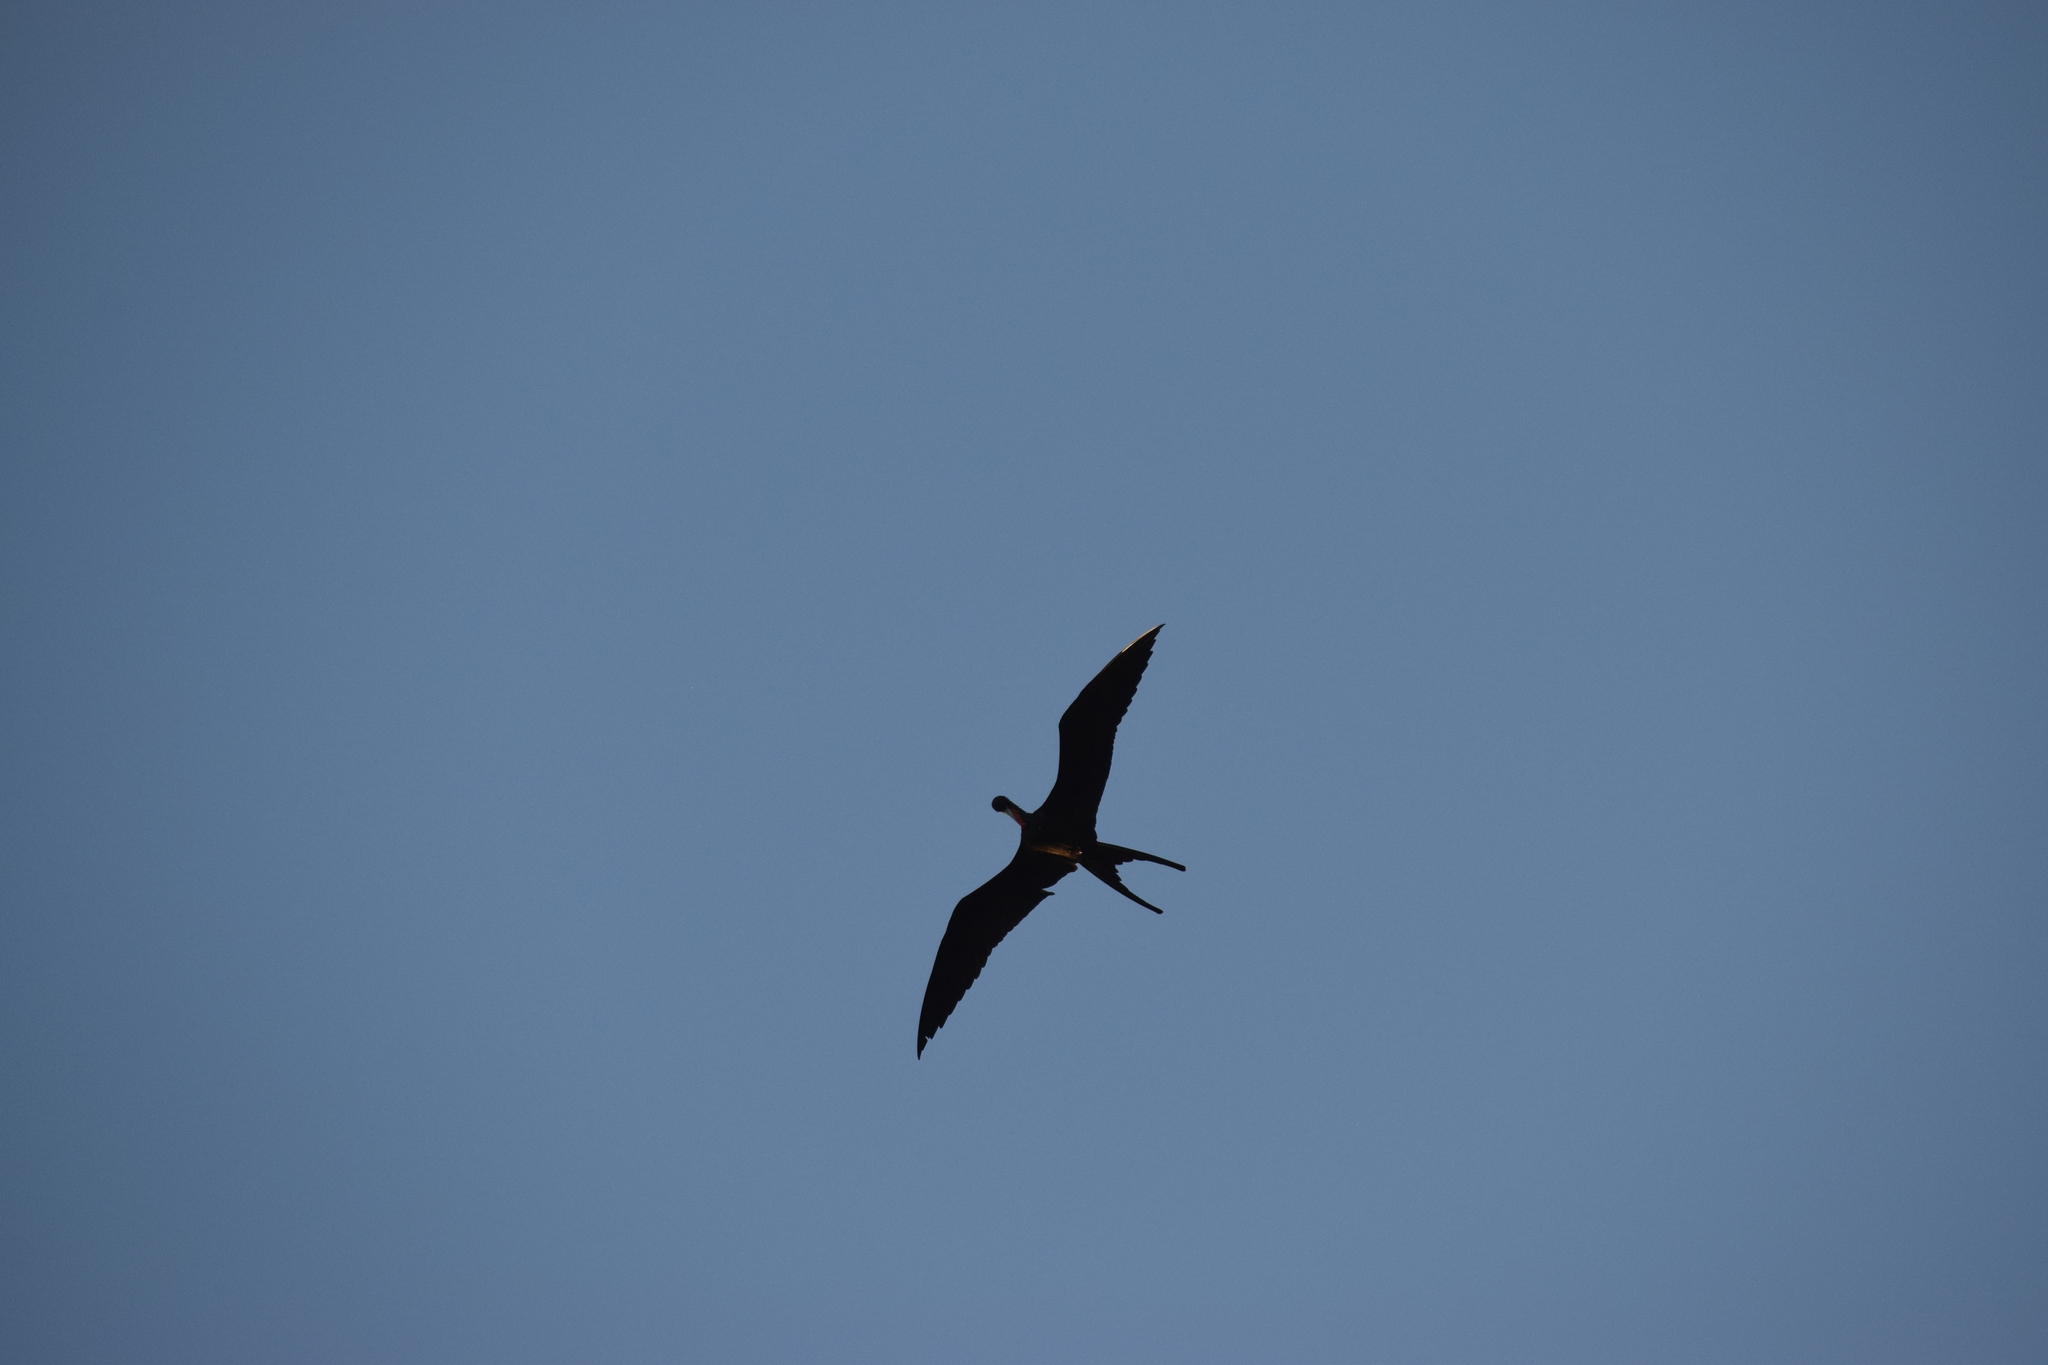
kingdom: Animalia
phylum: Chordata
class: Aves
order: Suliformes
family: Fregatidae
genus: Fregata
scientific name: Fregata magnificens
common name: Magnificent frigatebird
